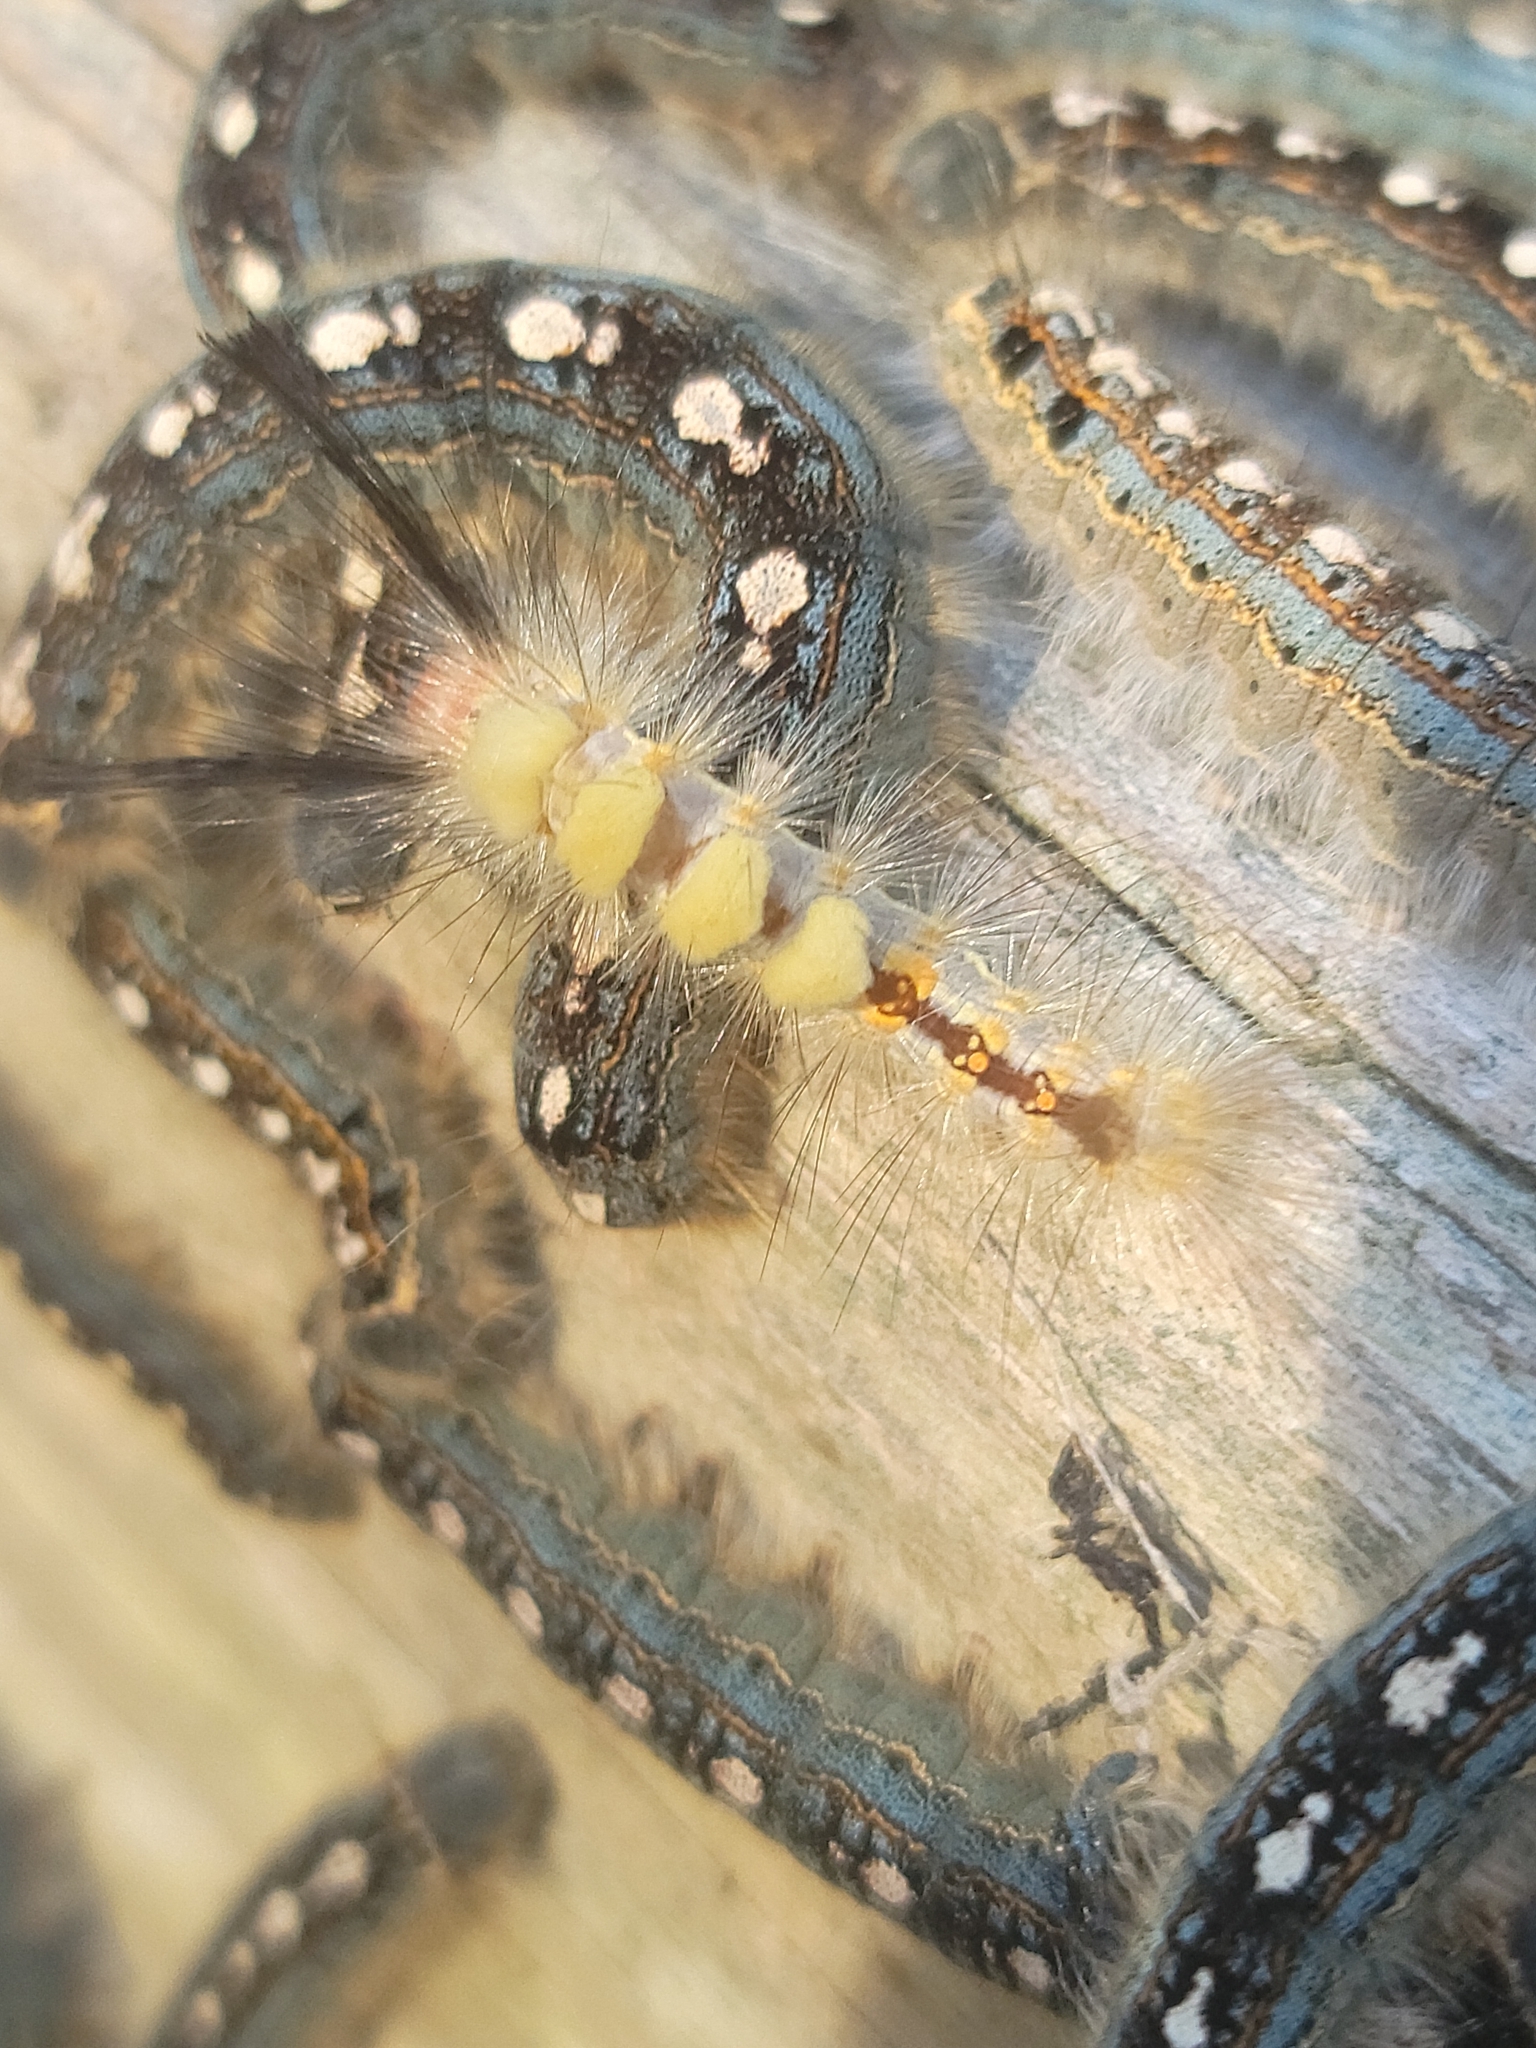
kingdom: Animalia
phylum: Arthropoda
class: Insecta
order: Lepidoptera
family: Erebidae
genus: Orgyia
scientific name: Orgyia detrita
